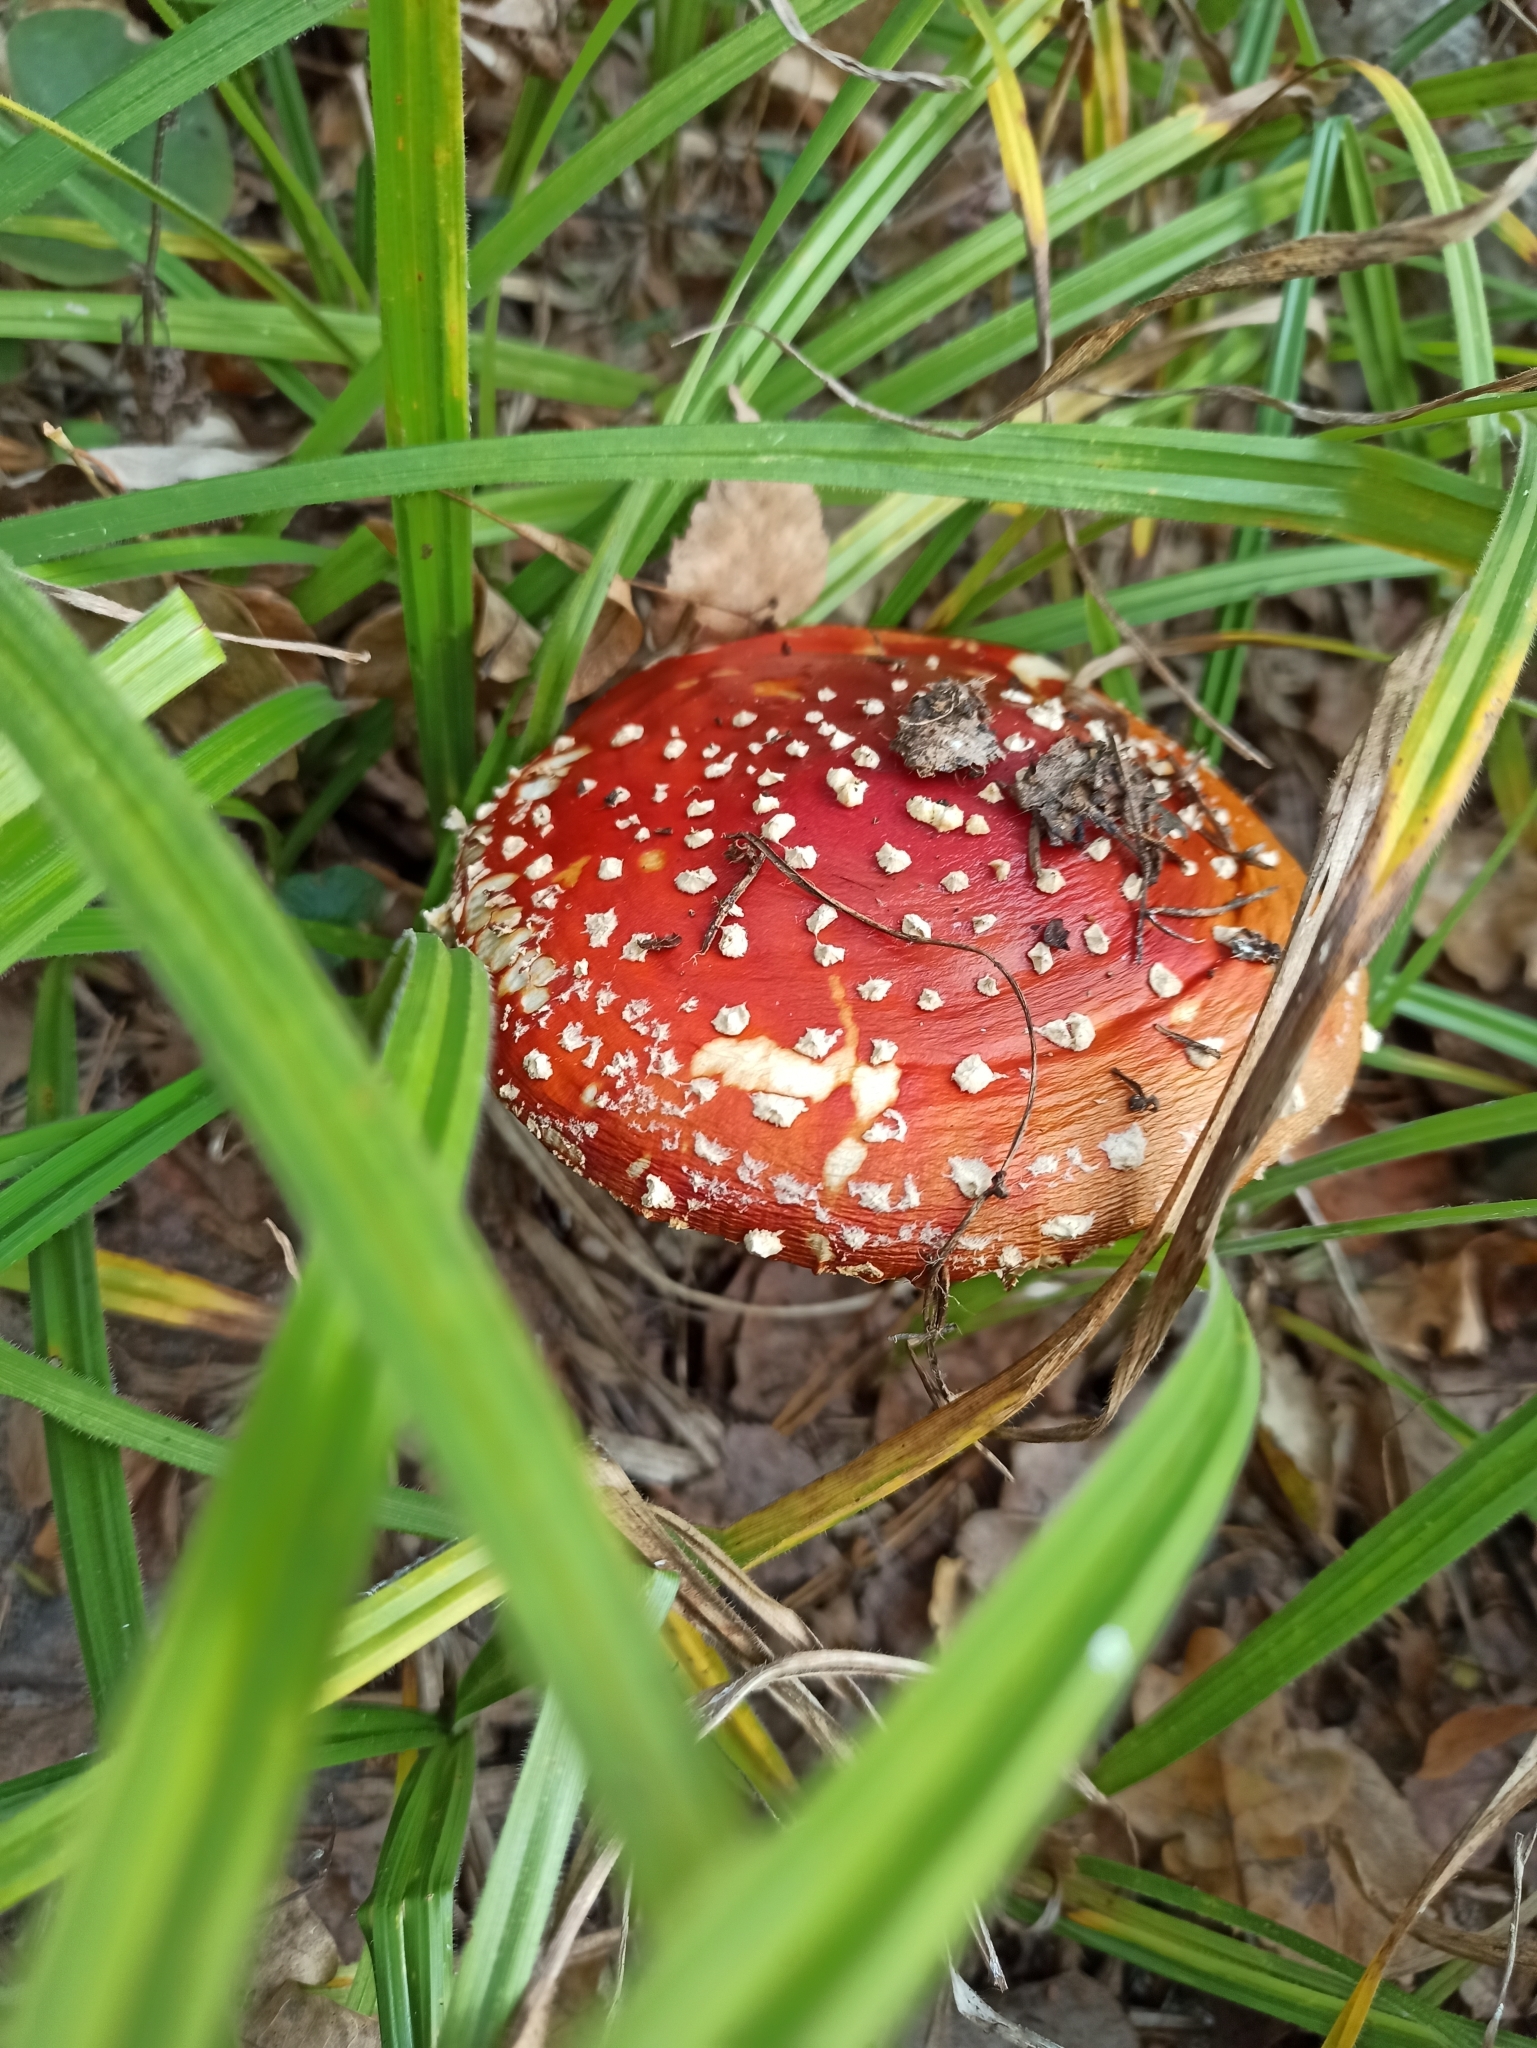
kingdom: Fungi
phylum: Basidiomycota
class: Agaricomycetes
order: Agaricales
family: Amanitaceae
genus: Amanita
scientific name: Amanita muscaria
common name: Fly agaric
